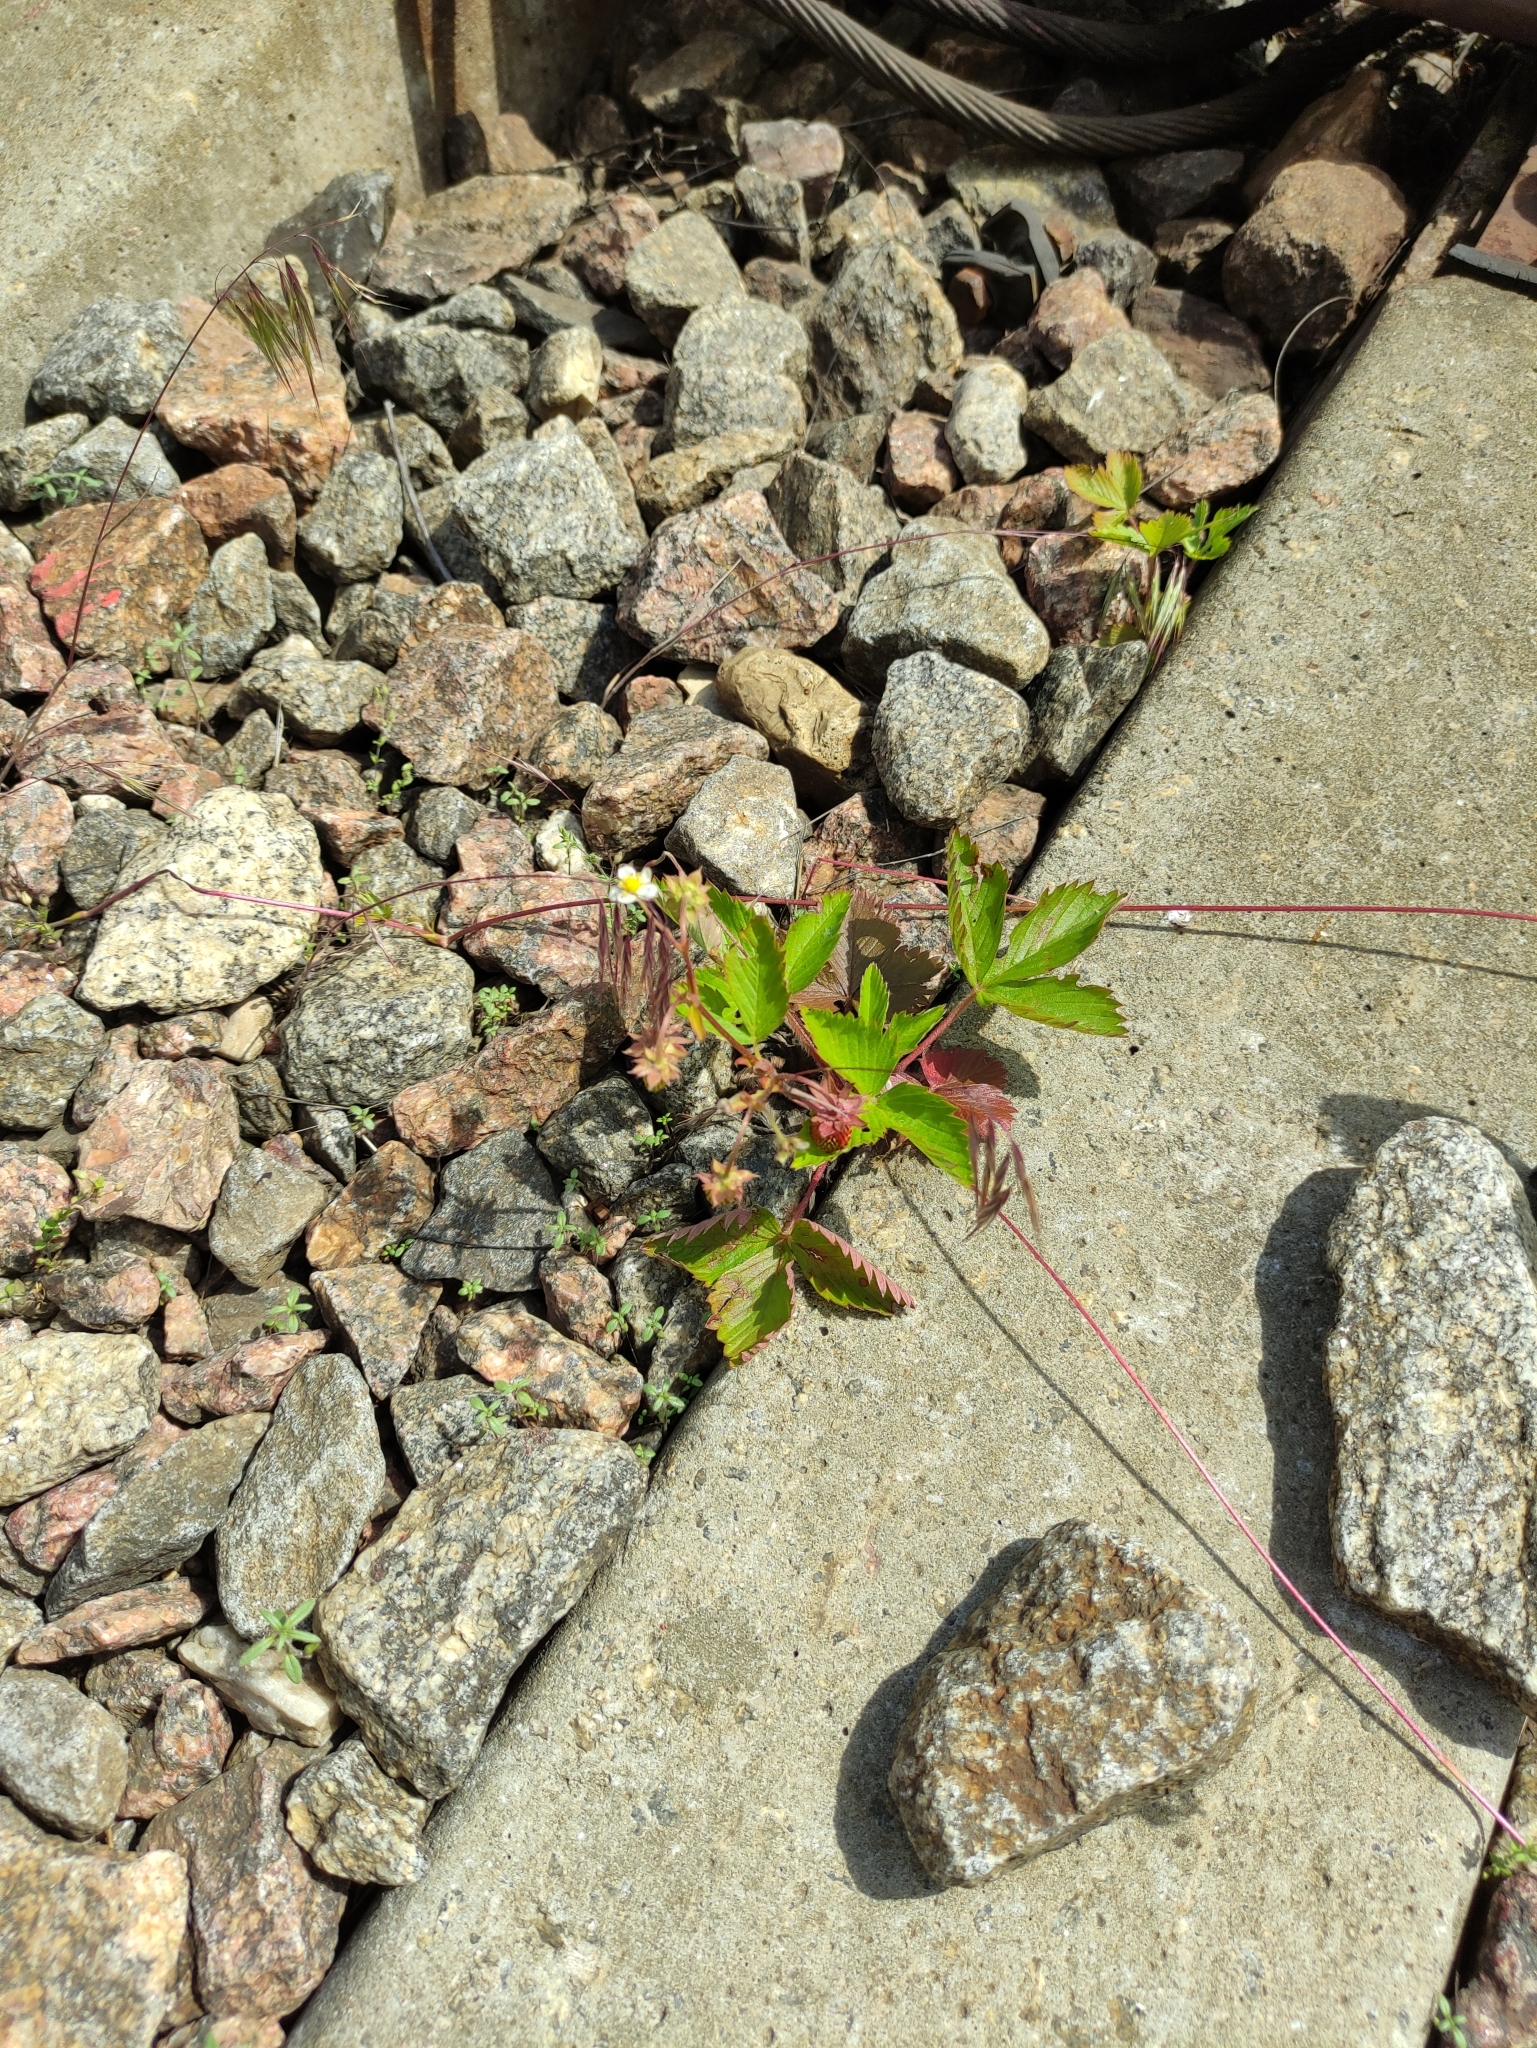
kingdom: Plantae
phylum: Tracheophyta
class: Magnoliopsida
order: Rosales
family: Rosaceae
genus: Fragaria
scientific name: Fragaria vesca
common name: Wild strawberry
